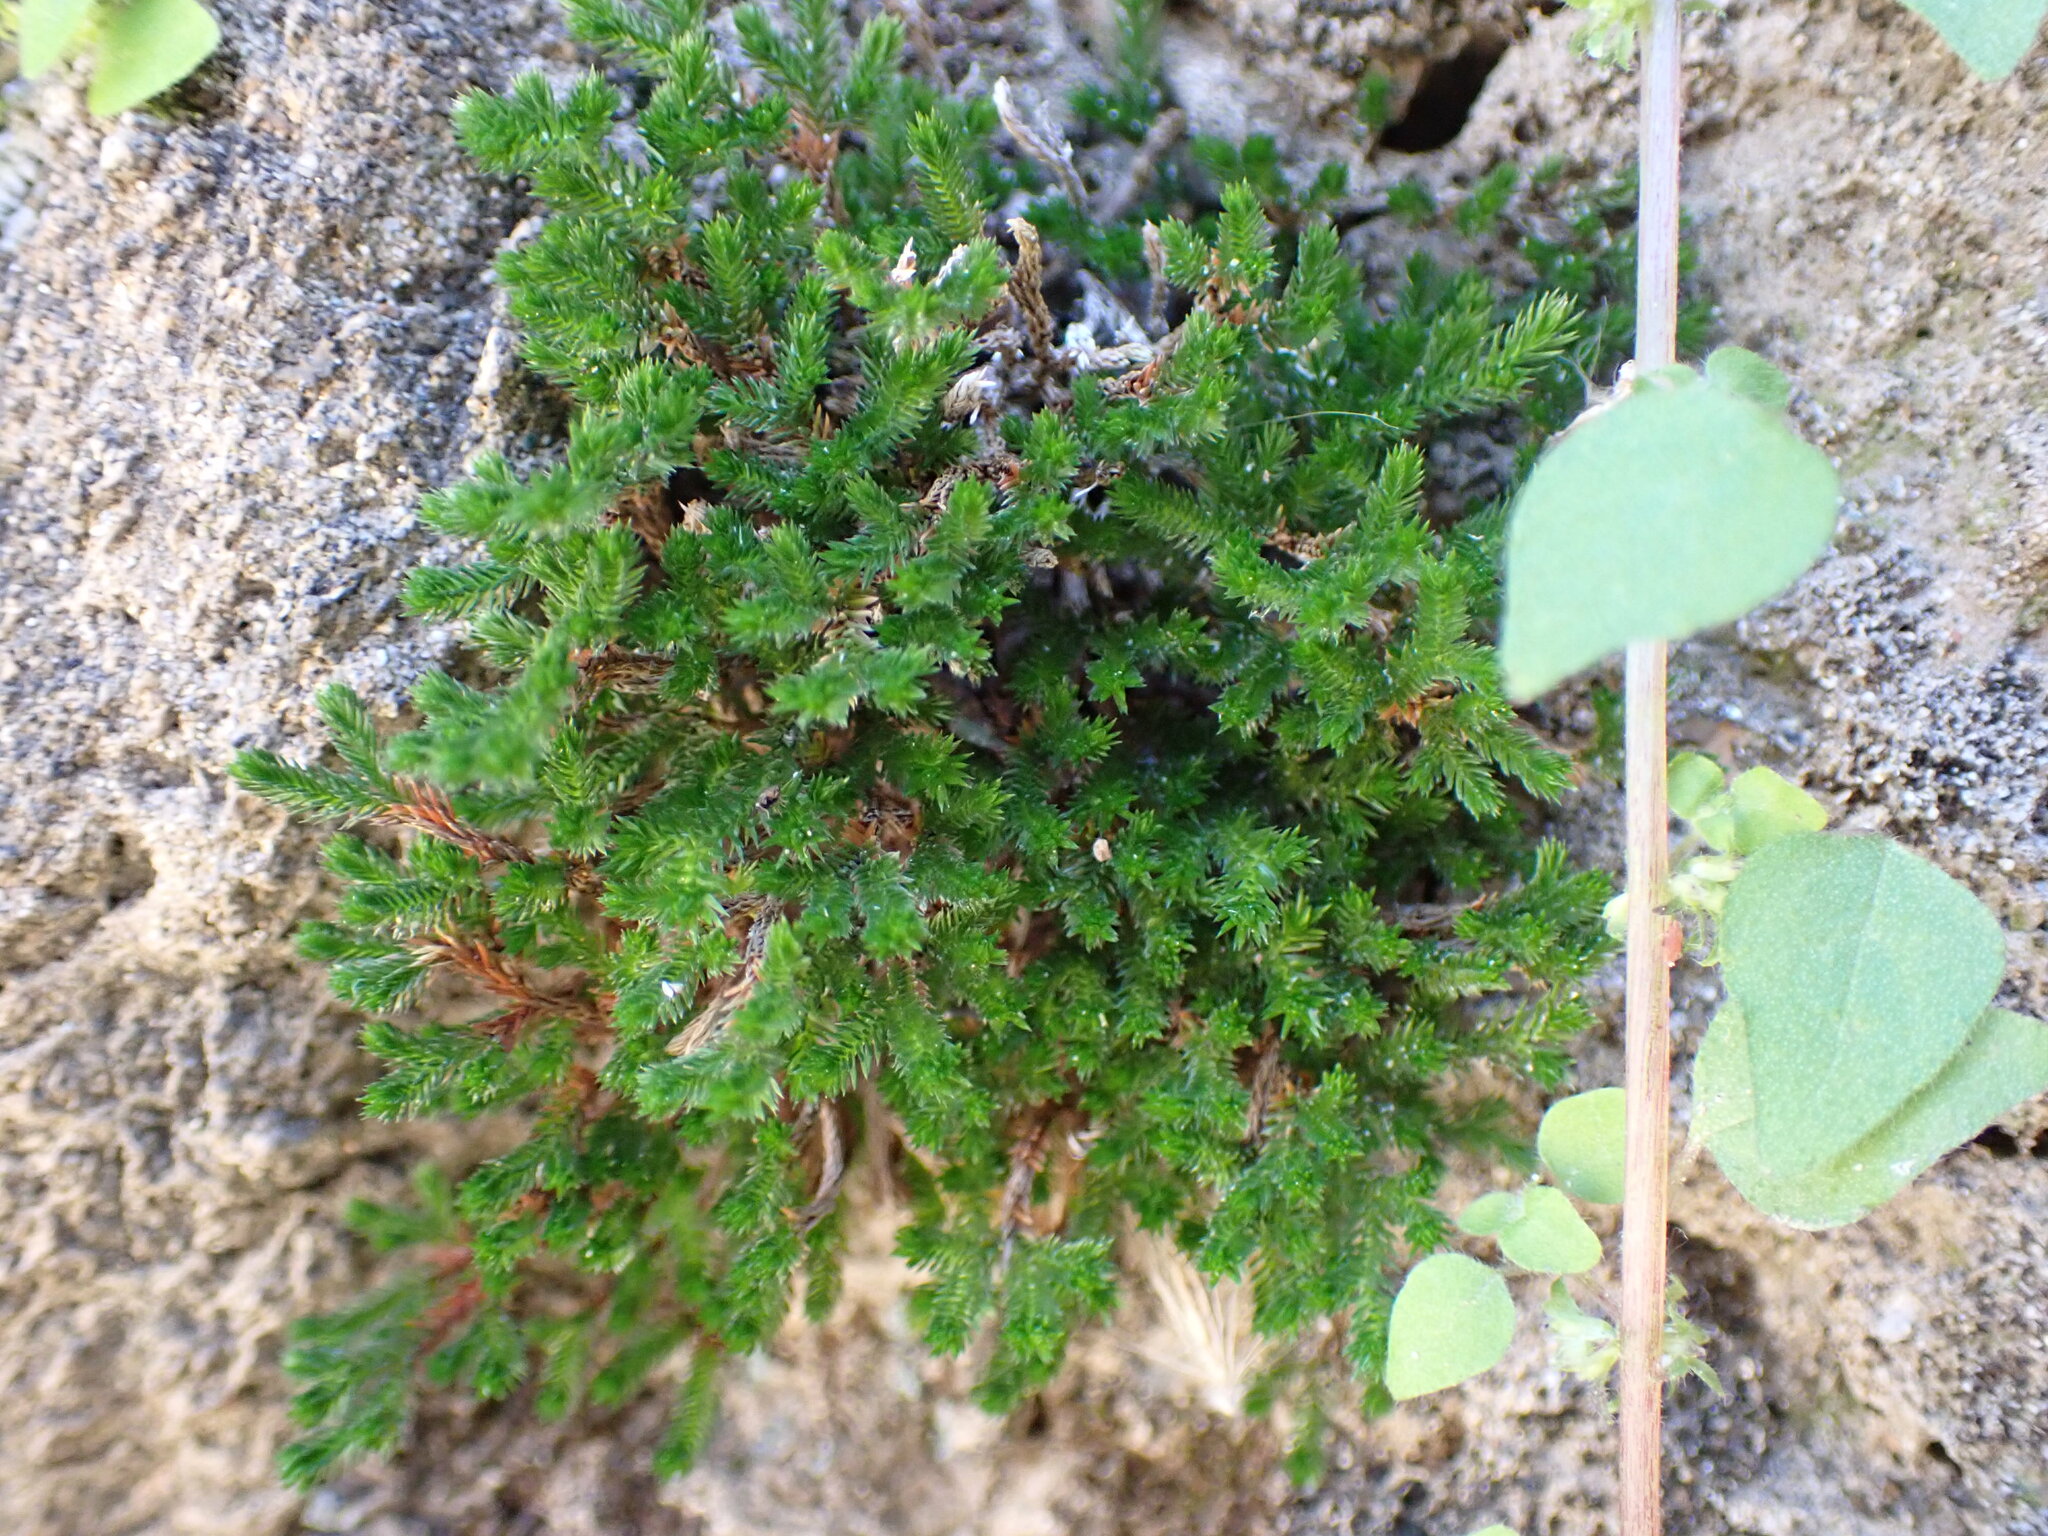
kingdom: Plantae
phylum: Tracheophyta
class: Lycopodiopsida
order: Selaginellales
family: Selaginellaceae
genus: Selaginella
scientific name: Selaginella eremophila
